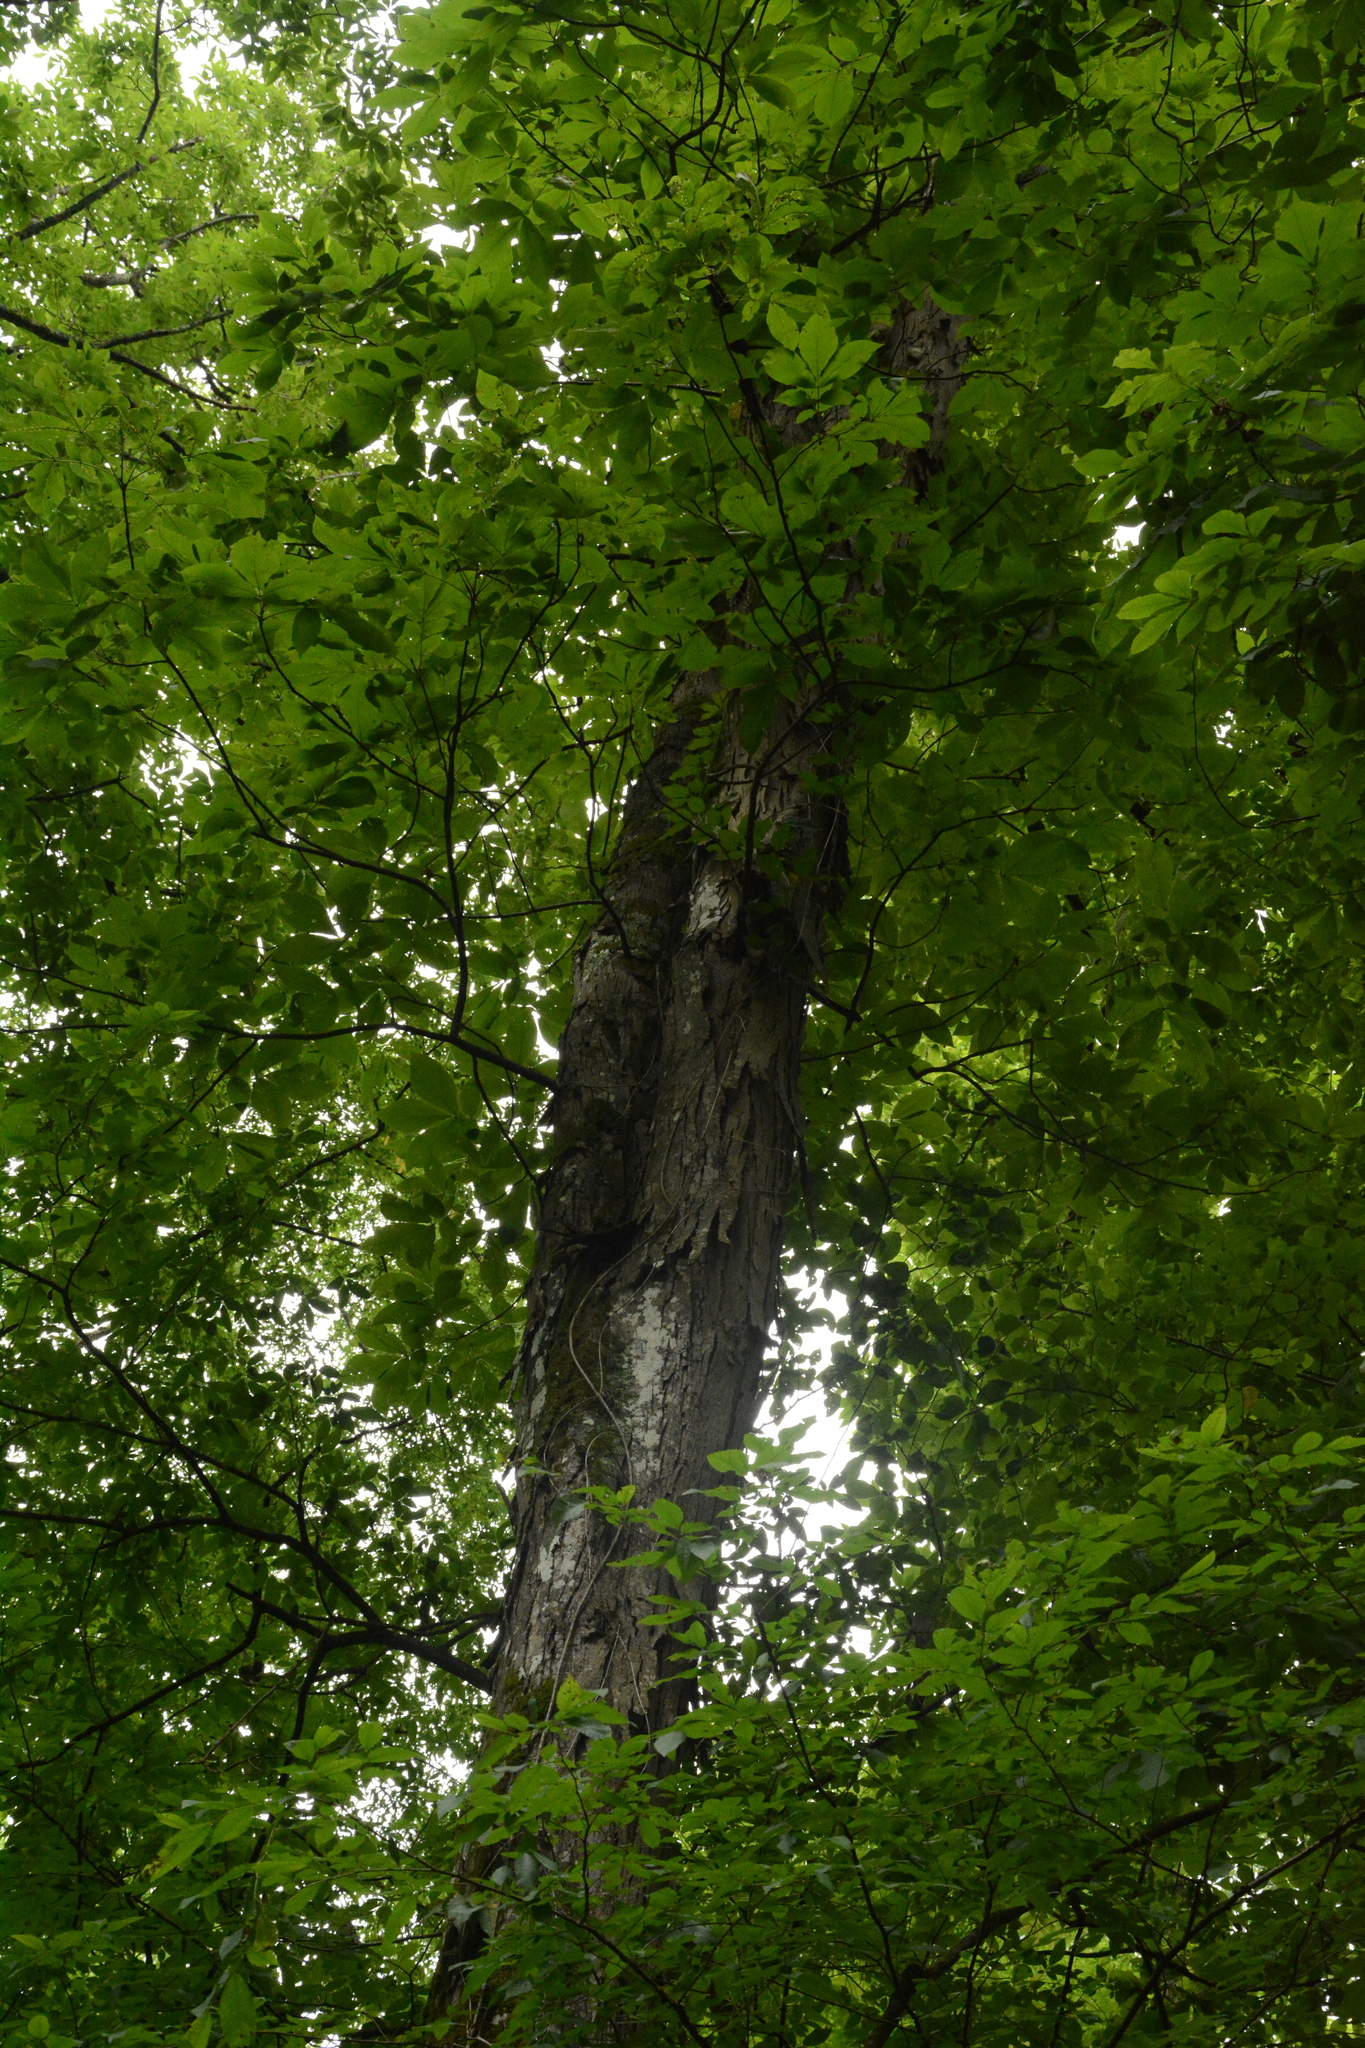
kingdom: Plantae
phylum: Tracheophyta
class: Magnoliopsida
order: Fagales
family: Juglandaceae
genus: Carya
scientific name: Carya ovata
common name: Shagbark hickory
